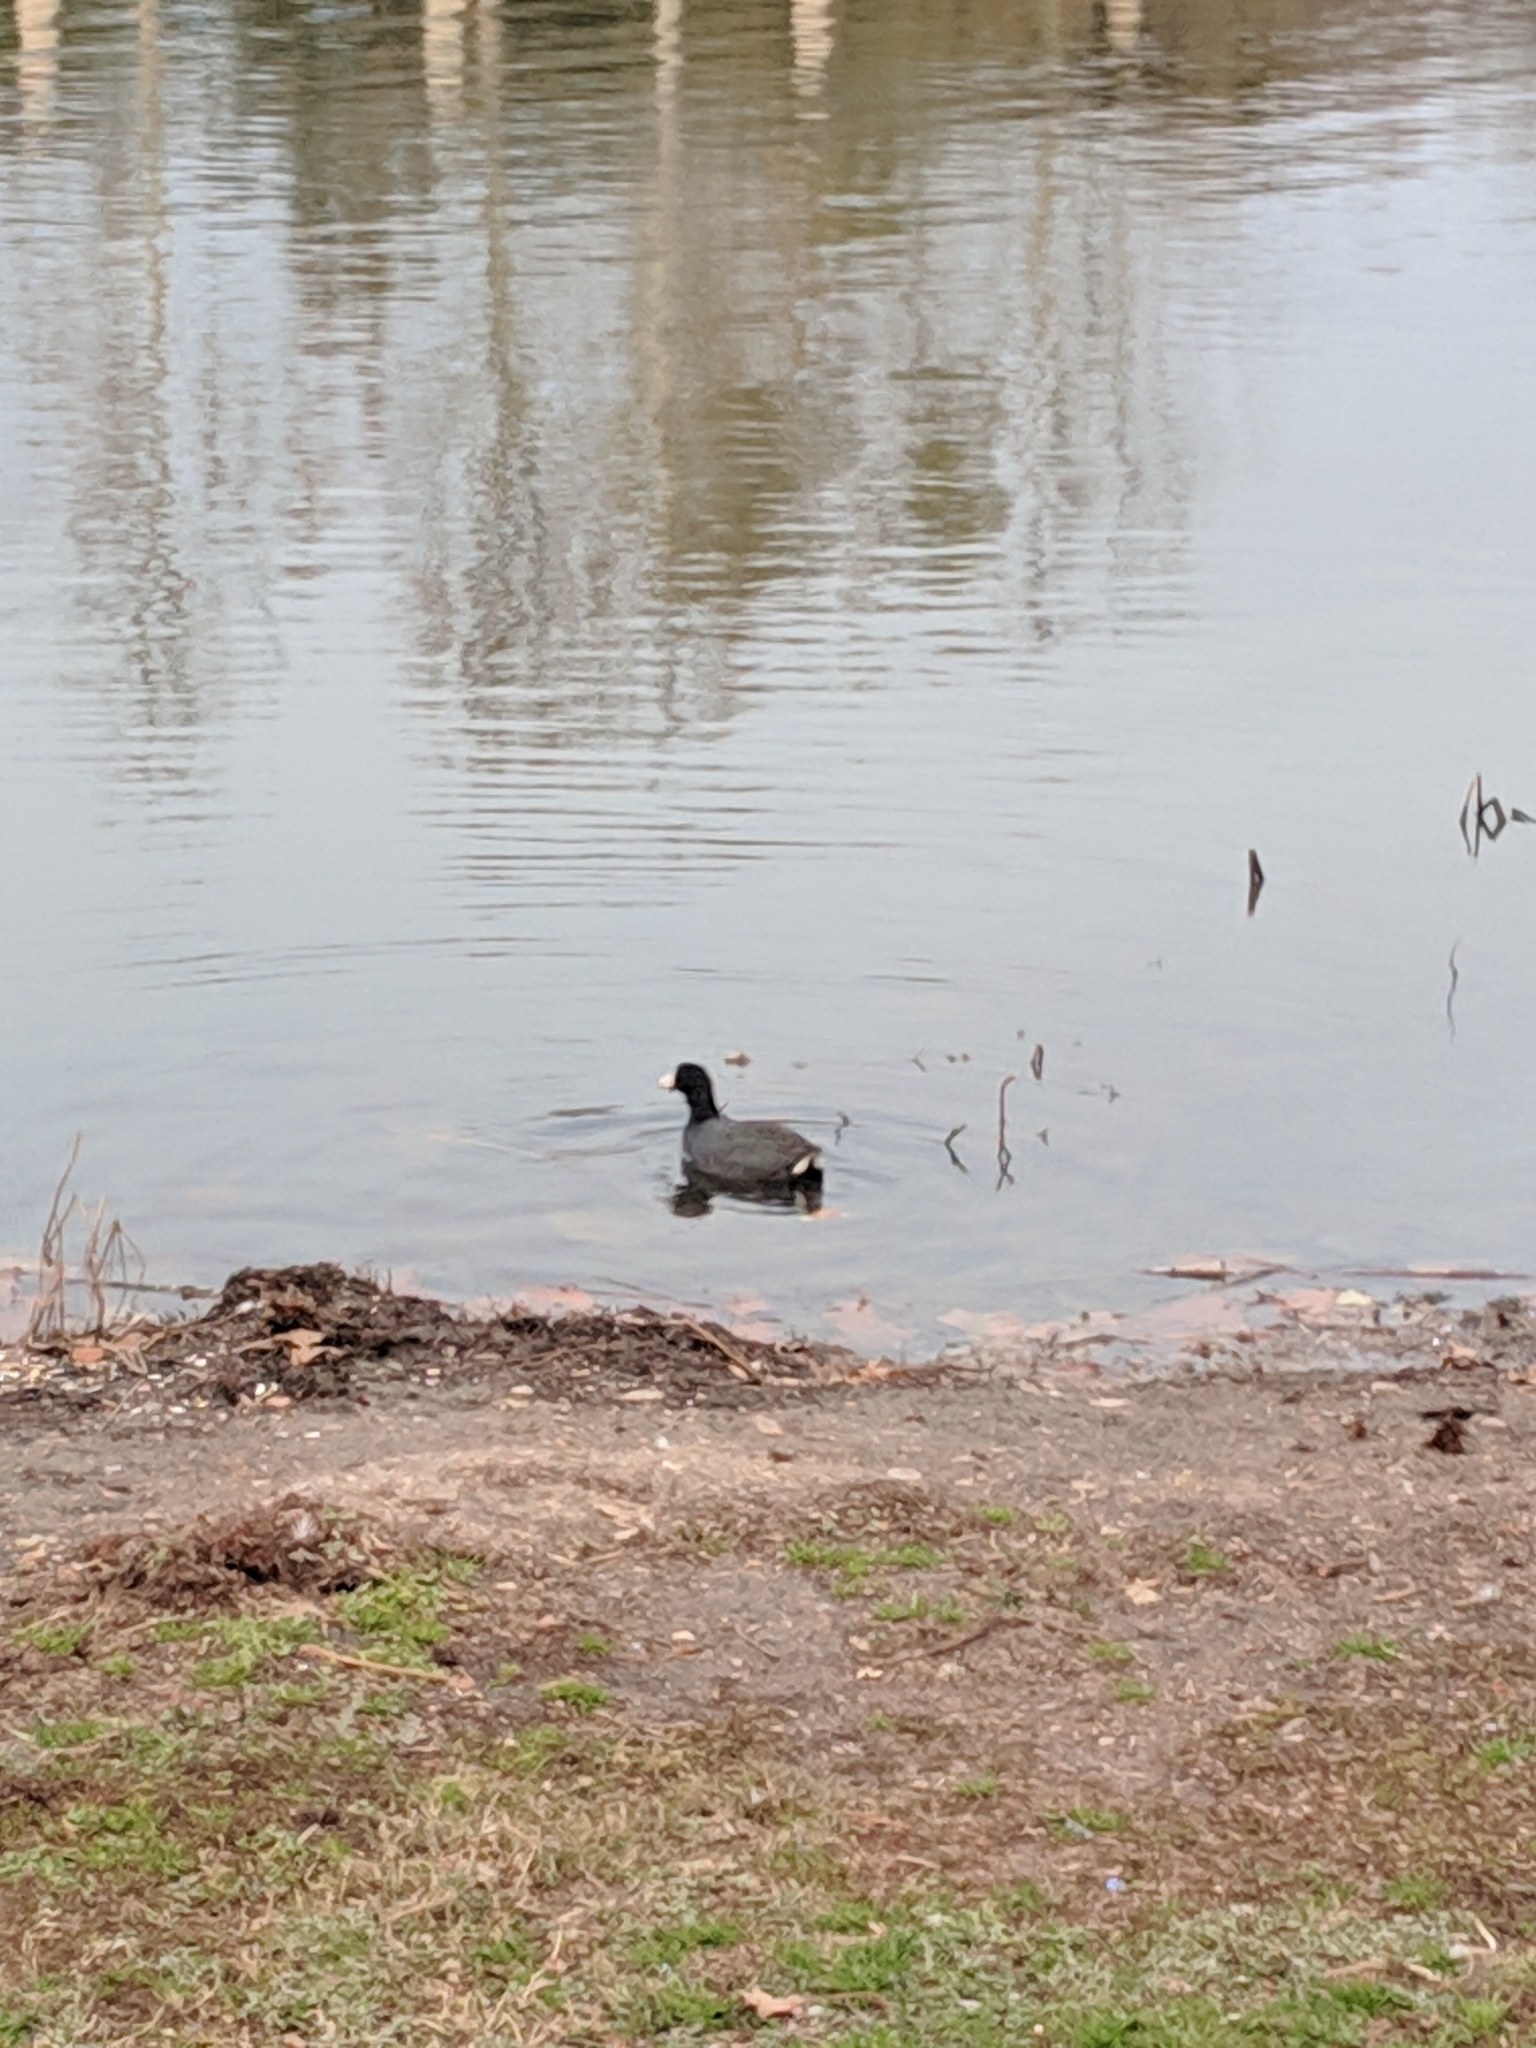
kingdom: Animalia
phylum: Chordata
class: Aves
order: Gruiformes
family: Rallidae
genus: Fulica
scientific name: Fulica americana
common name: American coot
